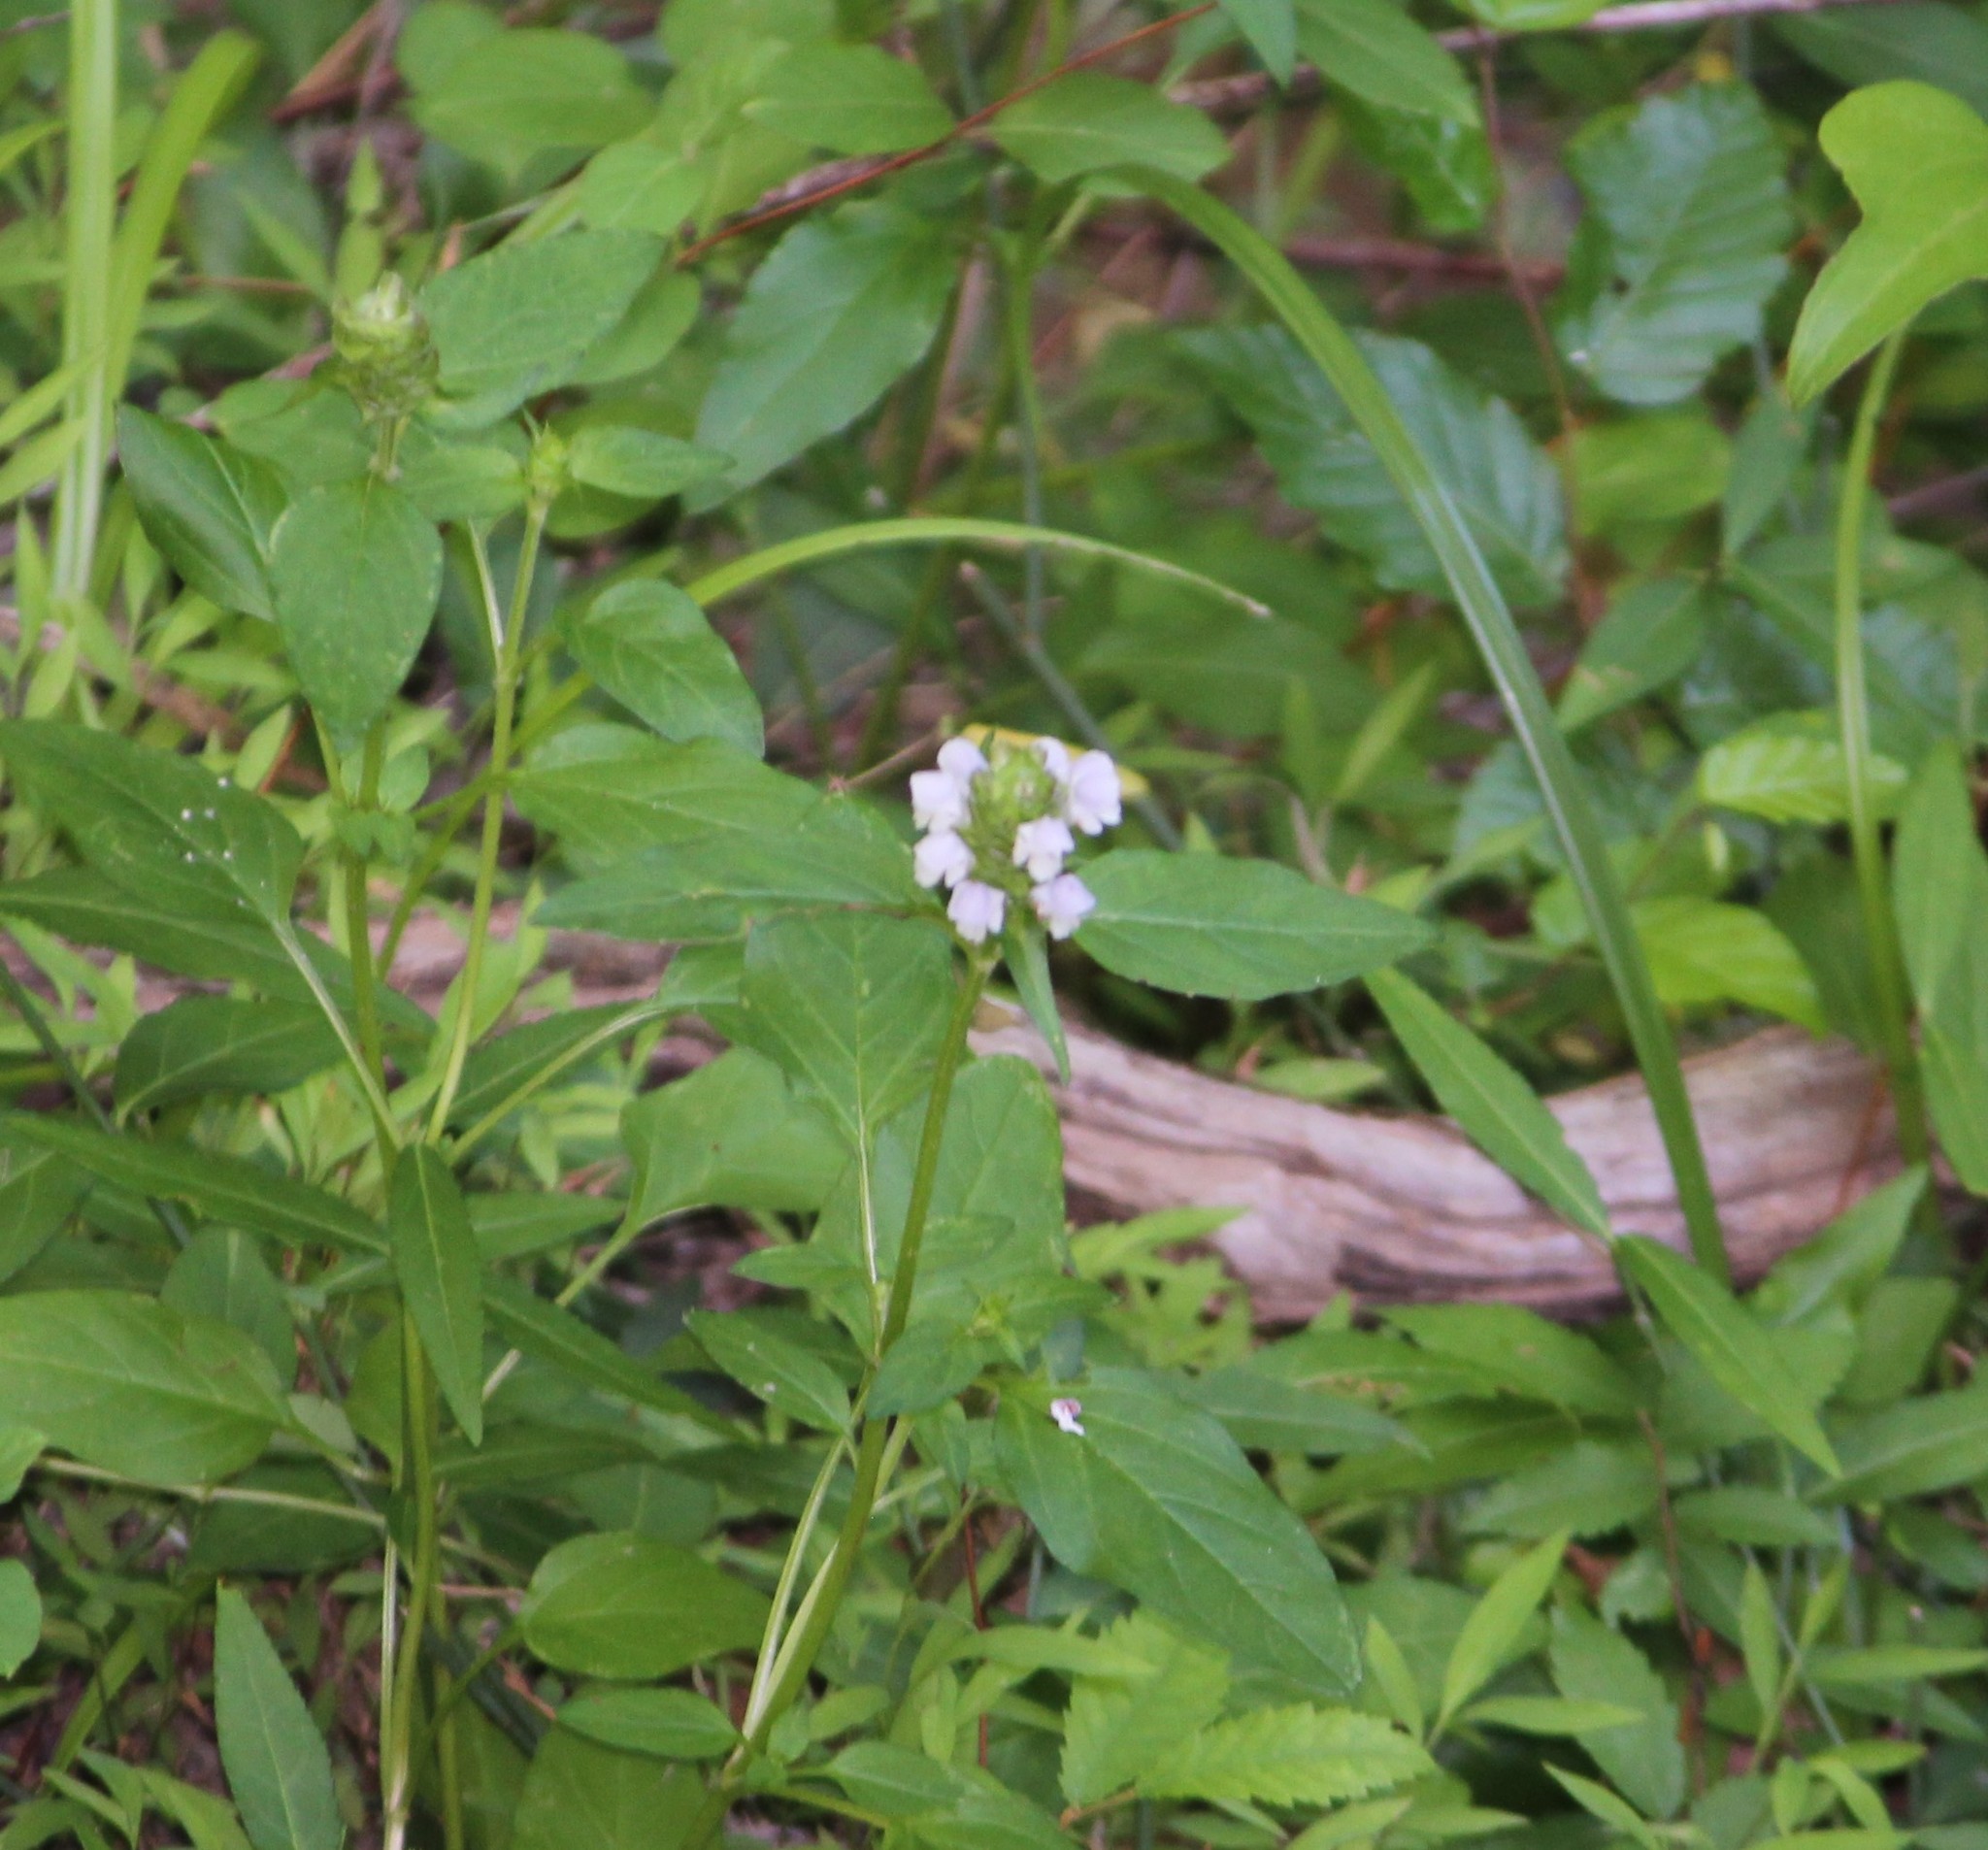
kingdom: Plantae
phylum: Tracheophyta
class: Magnoliopsida
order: Lamiales
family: Lamiaceae
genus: Prunella
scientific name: Prunella vulgaris
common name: Heal-all
